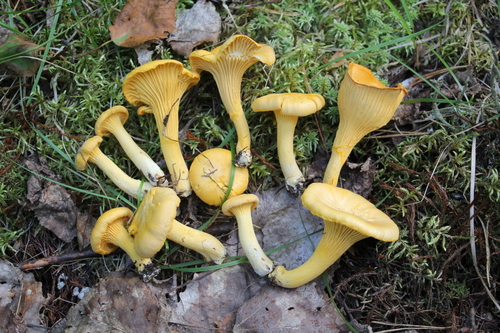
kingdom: Fungi
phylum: Basidiomycota
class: Agaricomycetes
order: Cantharellales
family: Hydnaceae
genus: Cantharellus
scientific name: Cantharellus cibarius
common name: Chanterelle
